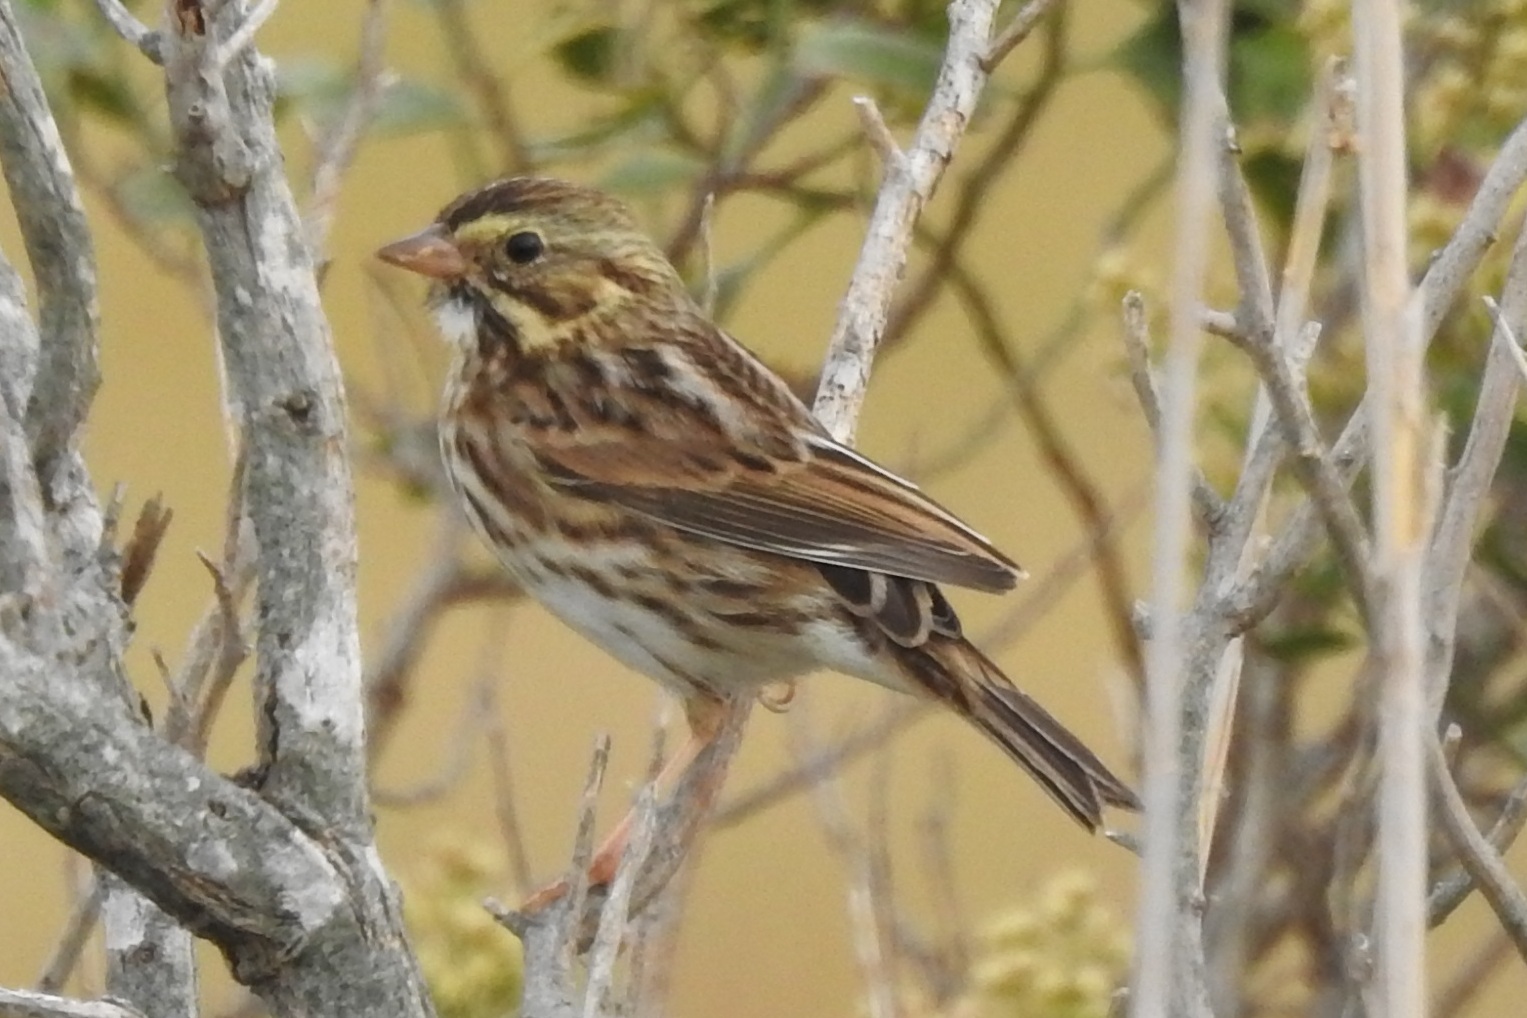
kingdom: Animalia
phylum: Chordata
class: Aves
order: Passeriformes
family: Passerellidae
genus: Passerculus
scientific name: Passerculus sandwichensis
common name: Savannah sparrow
